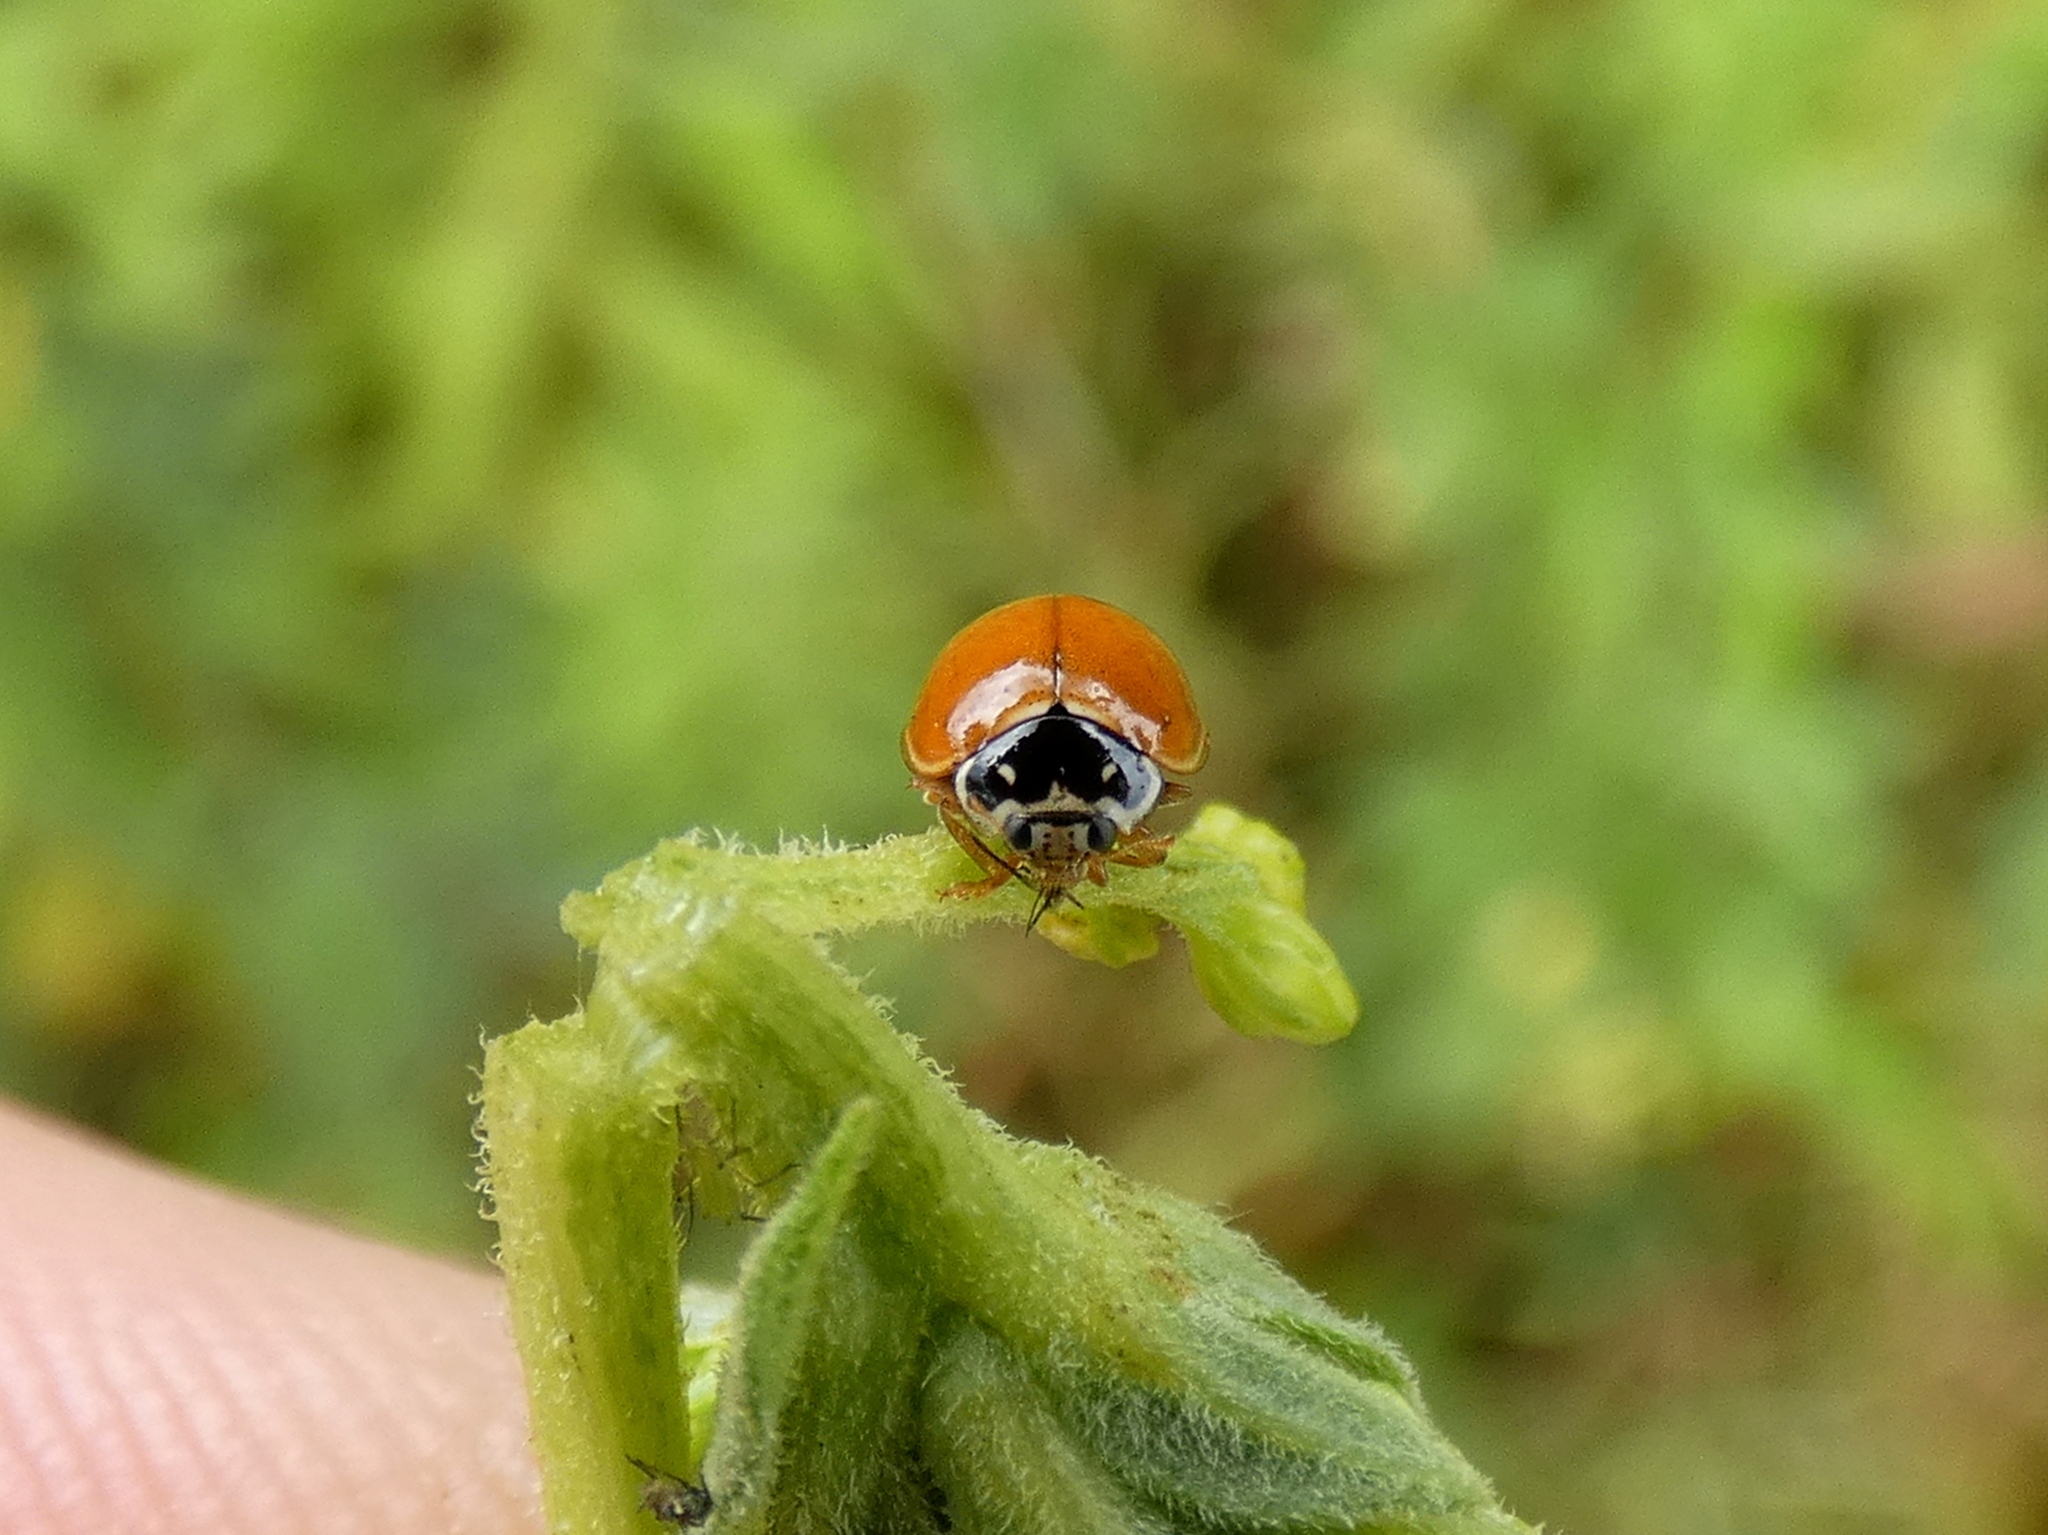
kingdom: Animalia
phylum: Arthropoda
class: Insecta
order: Coleoptera
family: Coccinellidae
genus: Cycloneda
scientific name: Cycloneda munda
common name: Polished lady beetle
